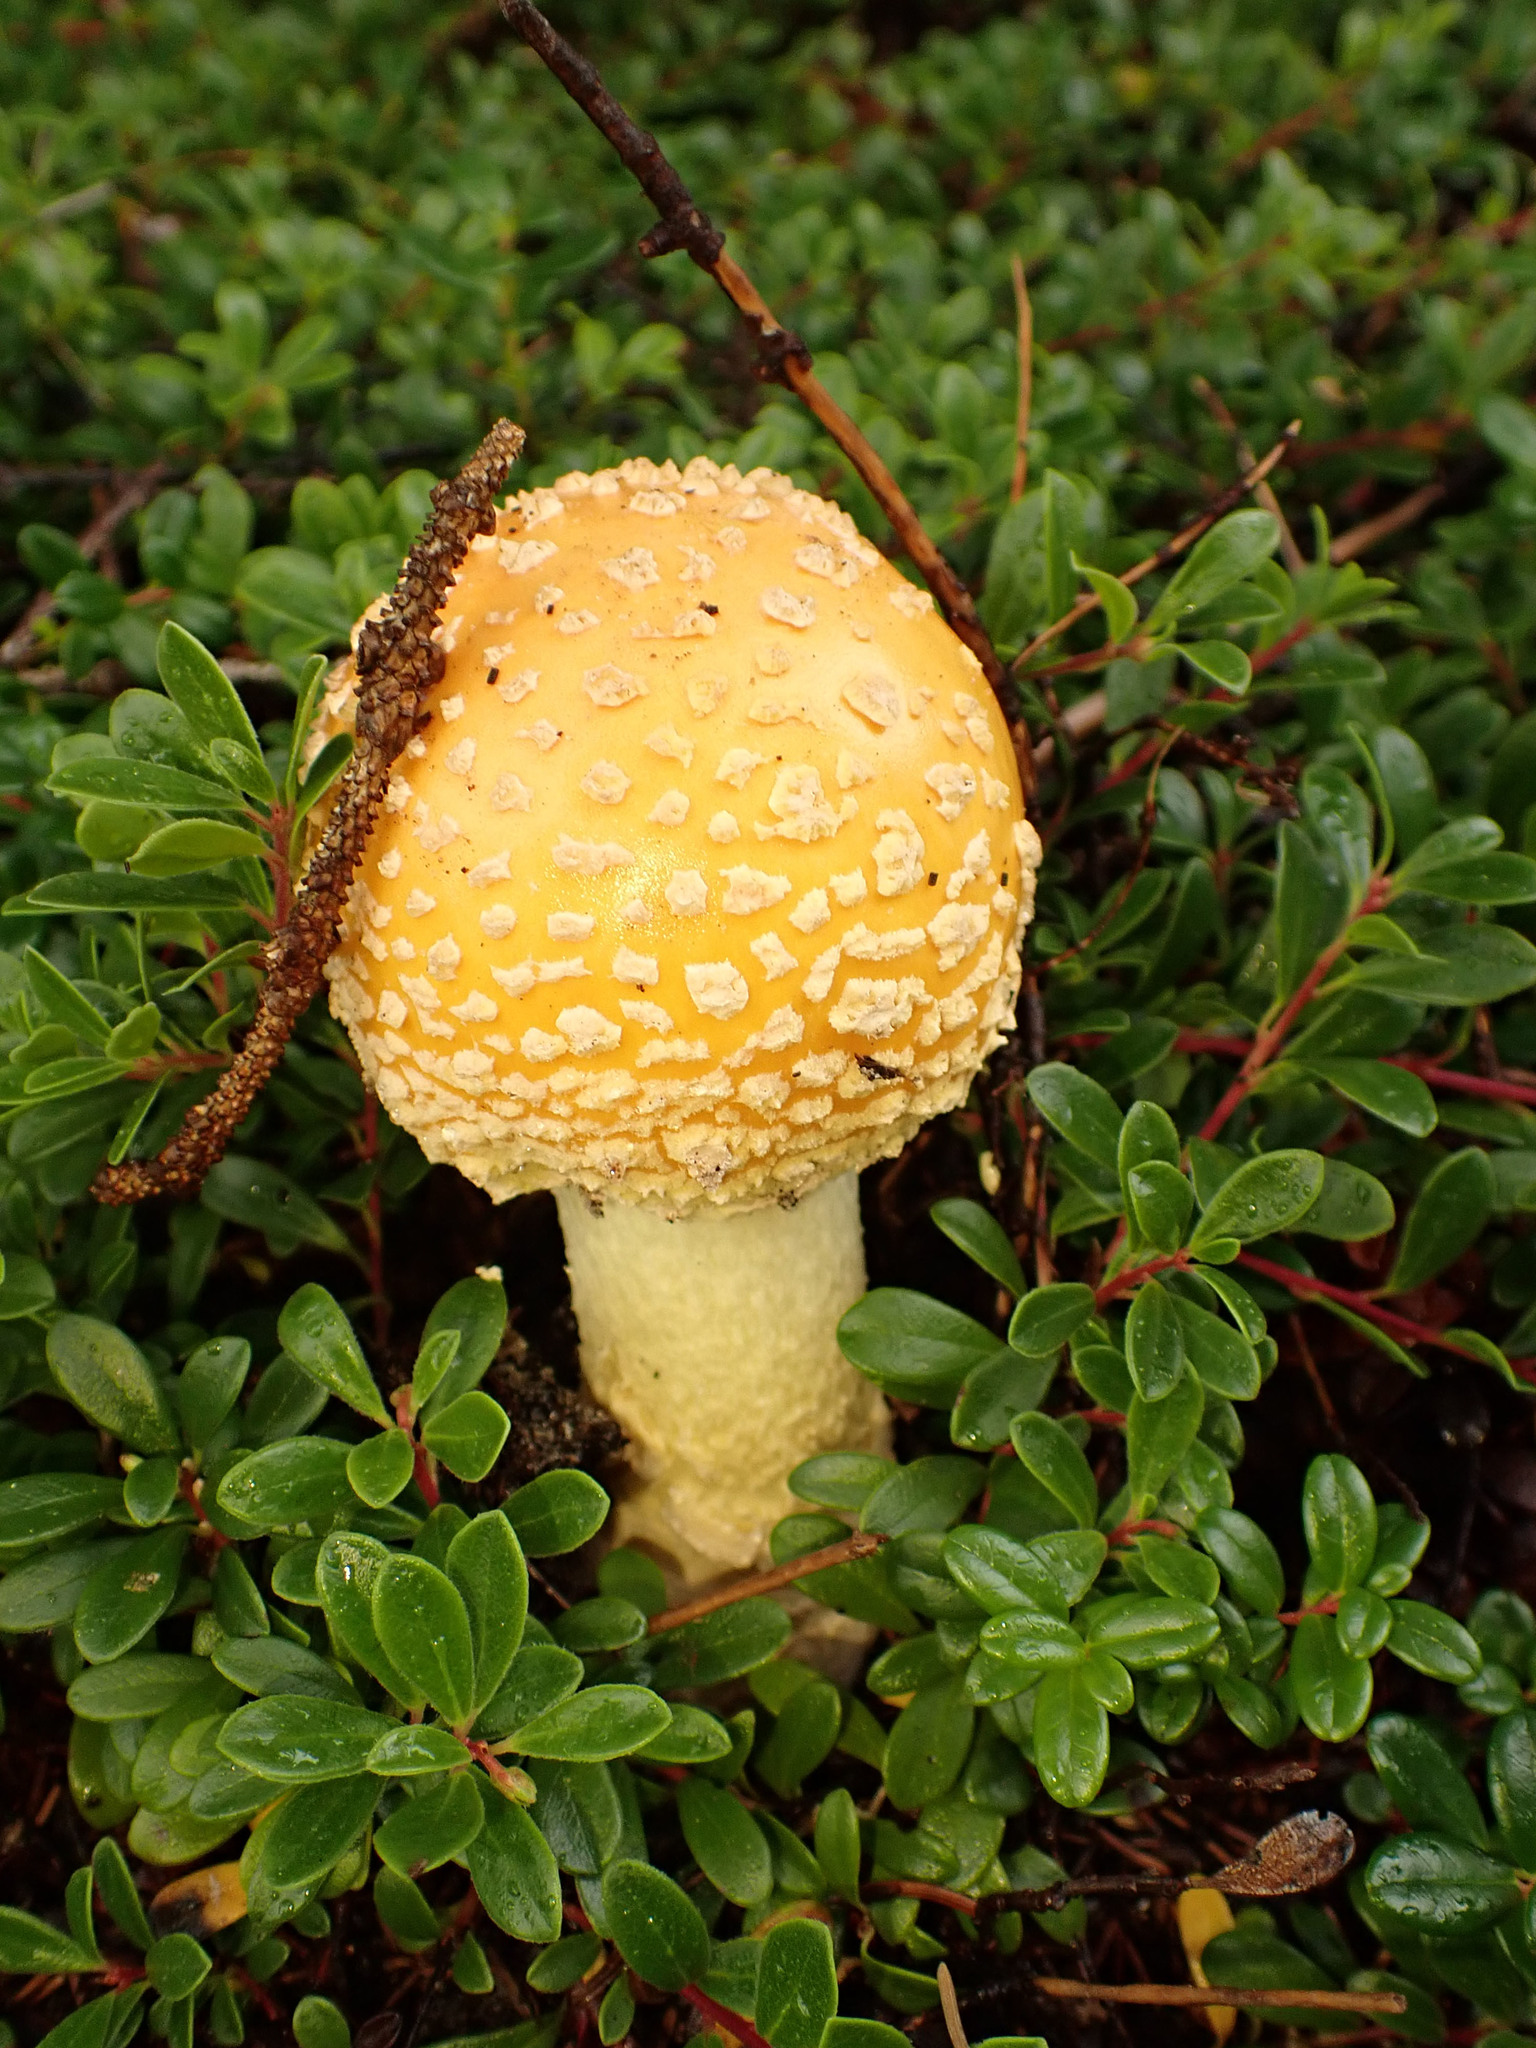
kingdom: Fungi
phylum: Basidiomycota
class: Agaricomycetes
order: Agaricales
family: Amanitaceae
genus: Amanita
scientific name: Amanita muscaria
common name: Fly agaric
